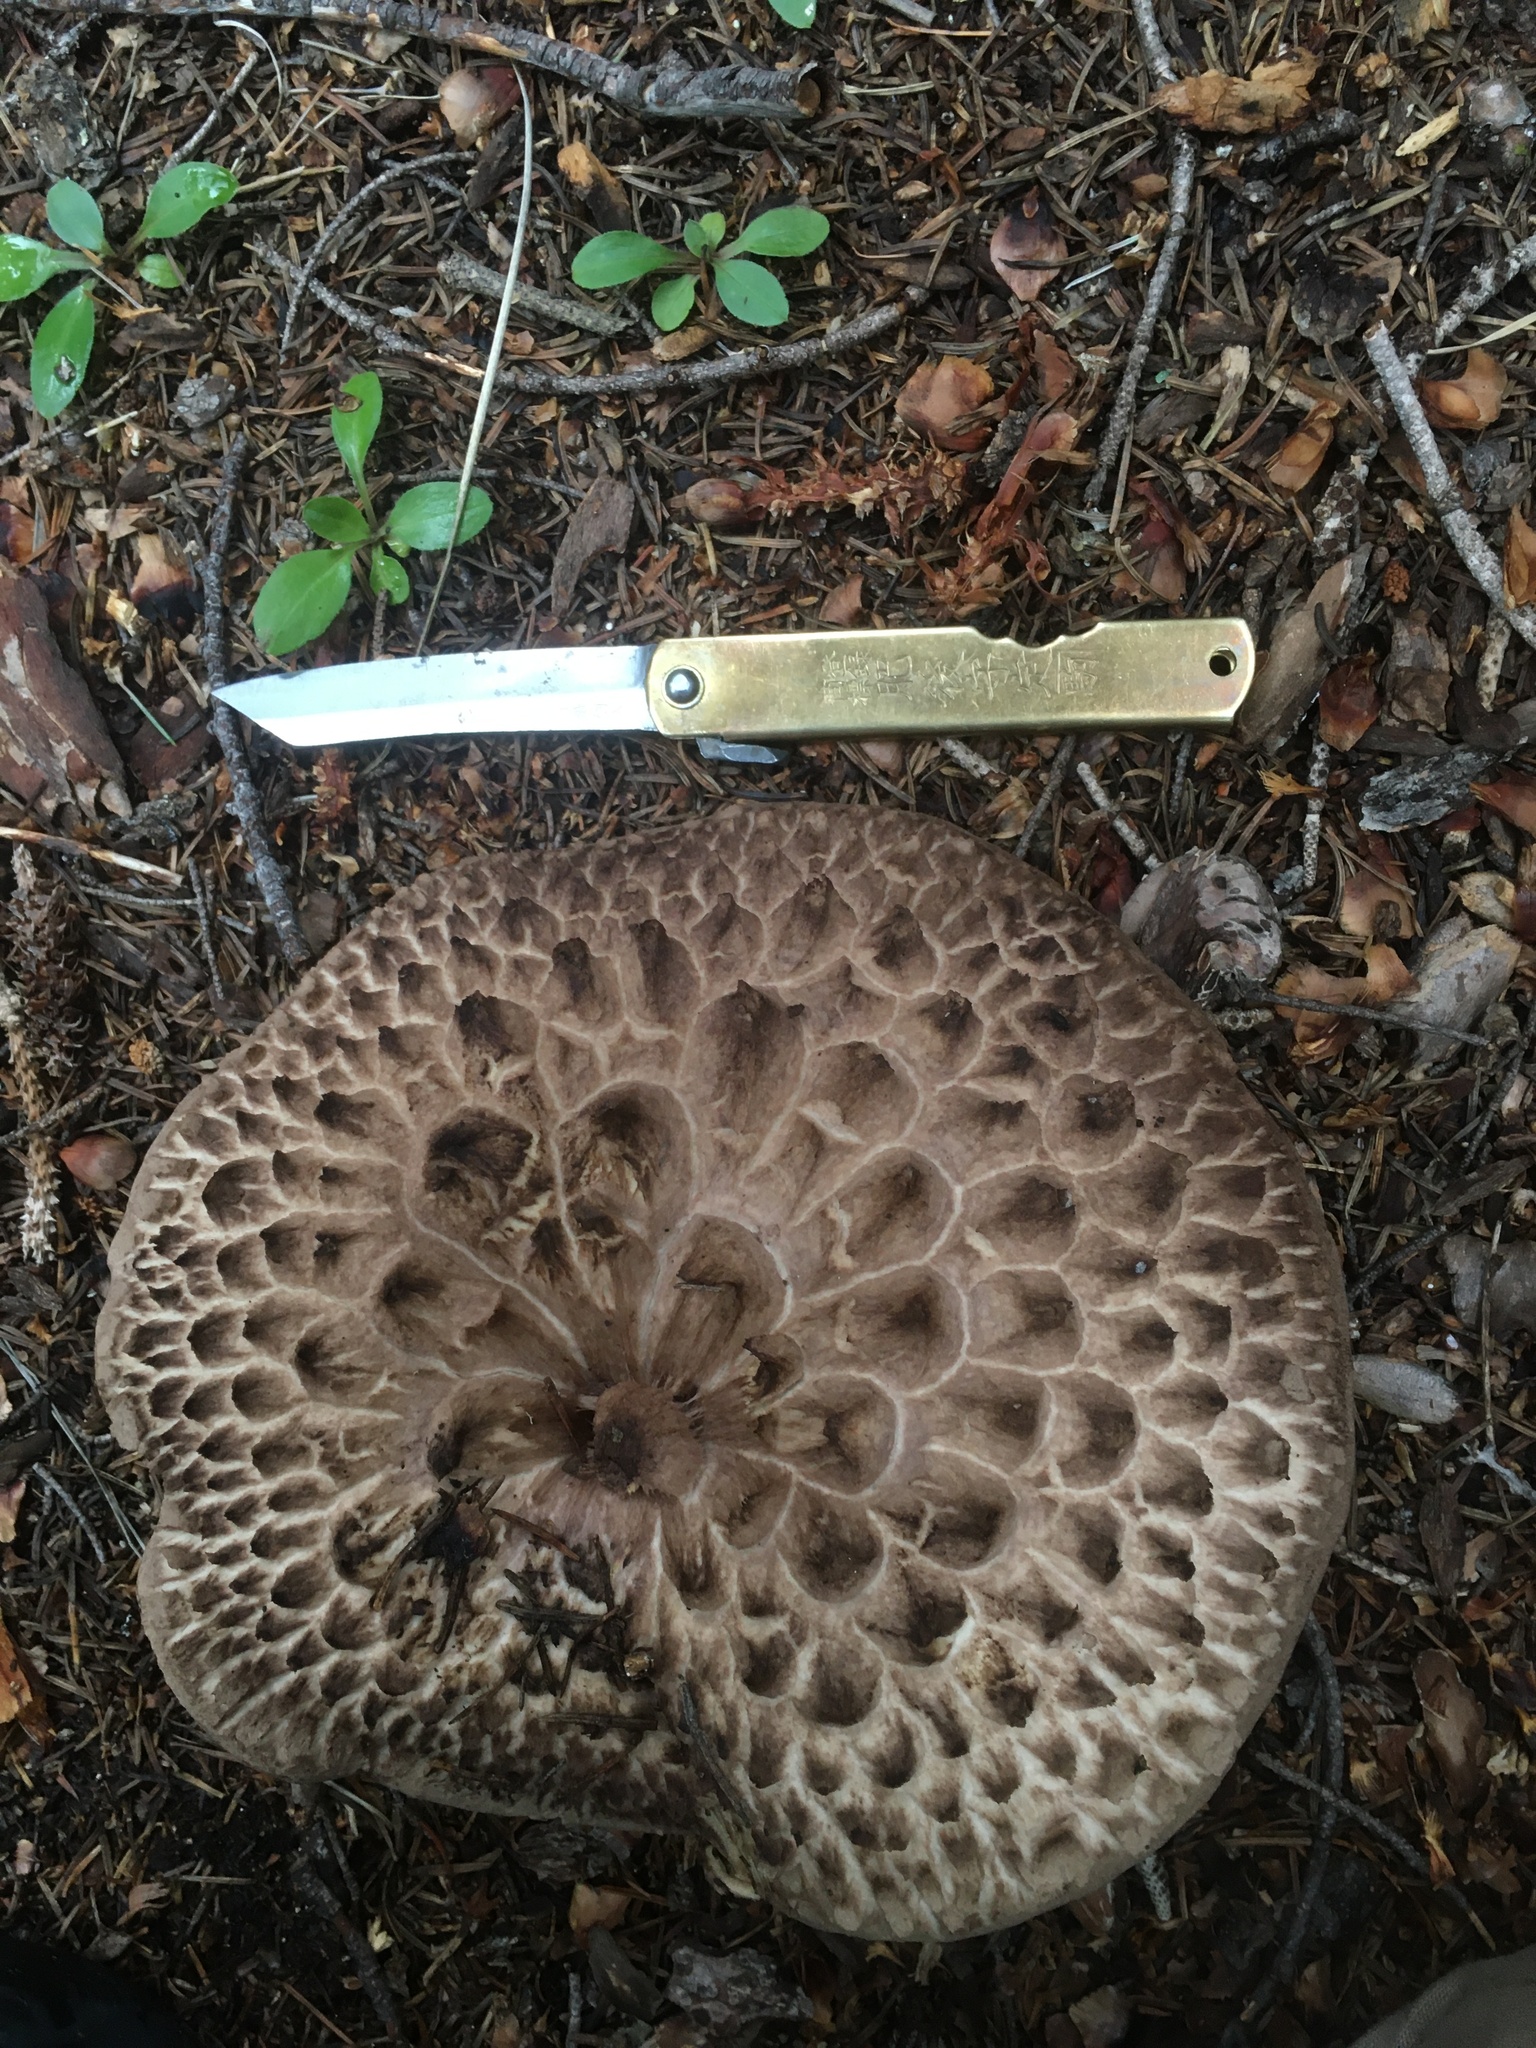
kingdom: Fungi
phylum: Basidiomycota
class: Agaricomycetes
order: Thelephorales
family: Bankeraceae
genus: Sarcodon
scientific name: Sarcodon imbricatus
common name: Shingled hedgehog
